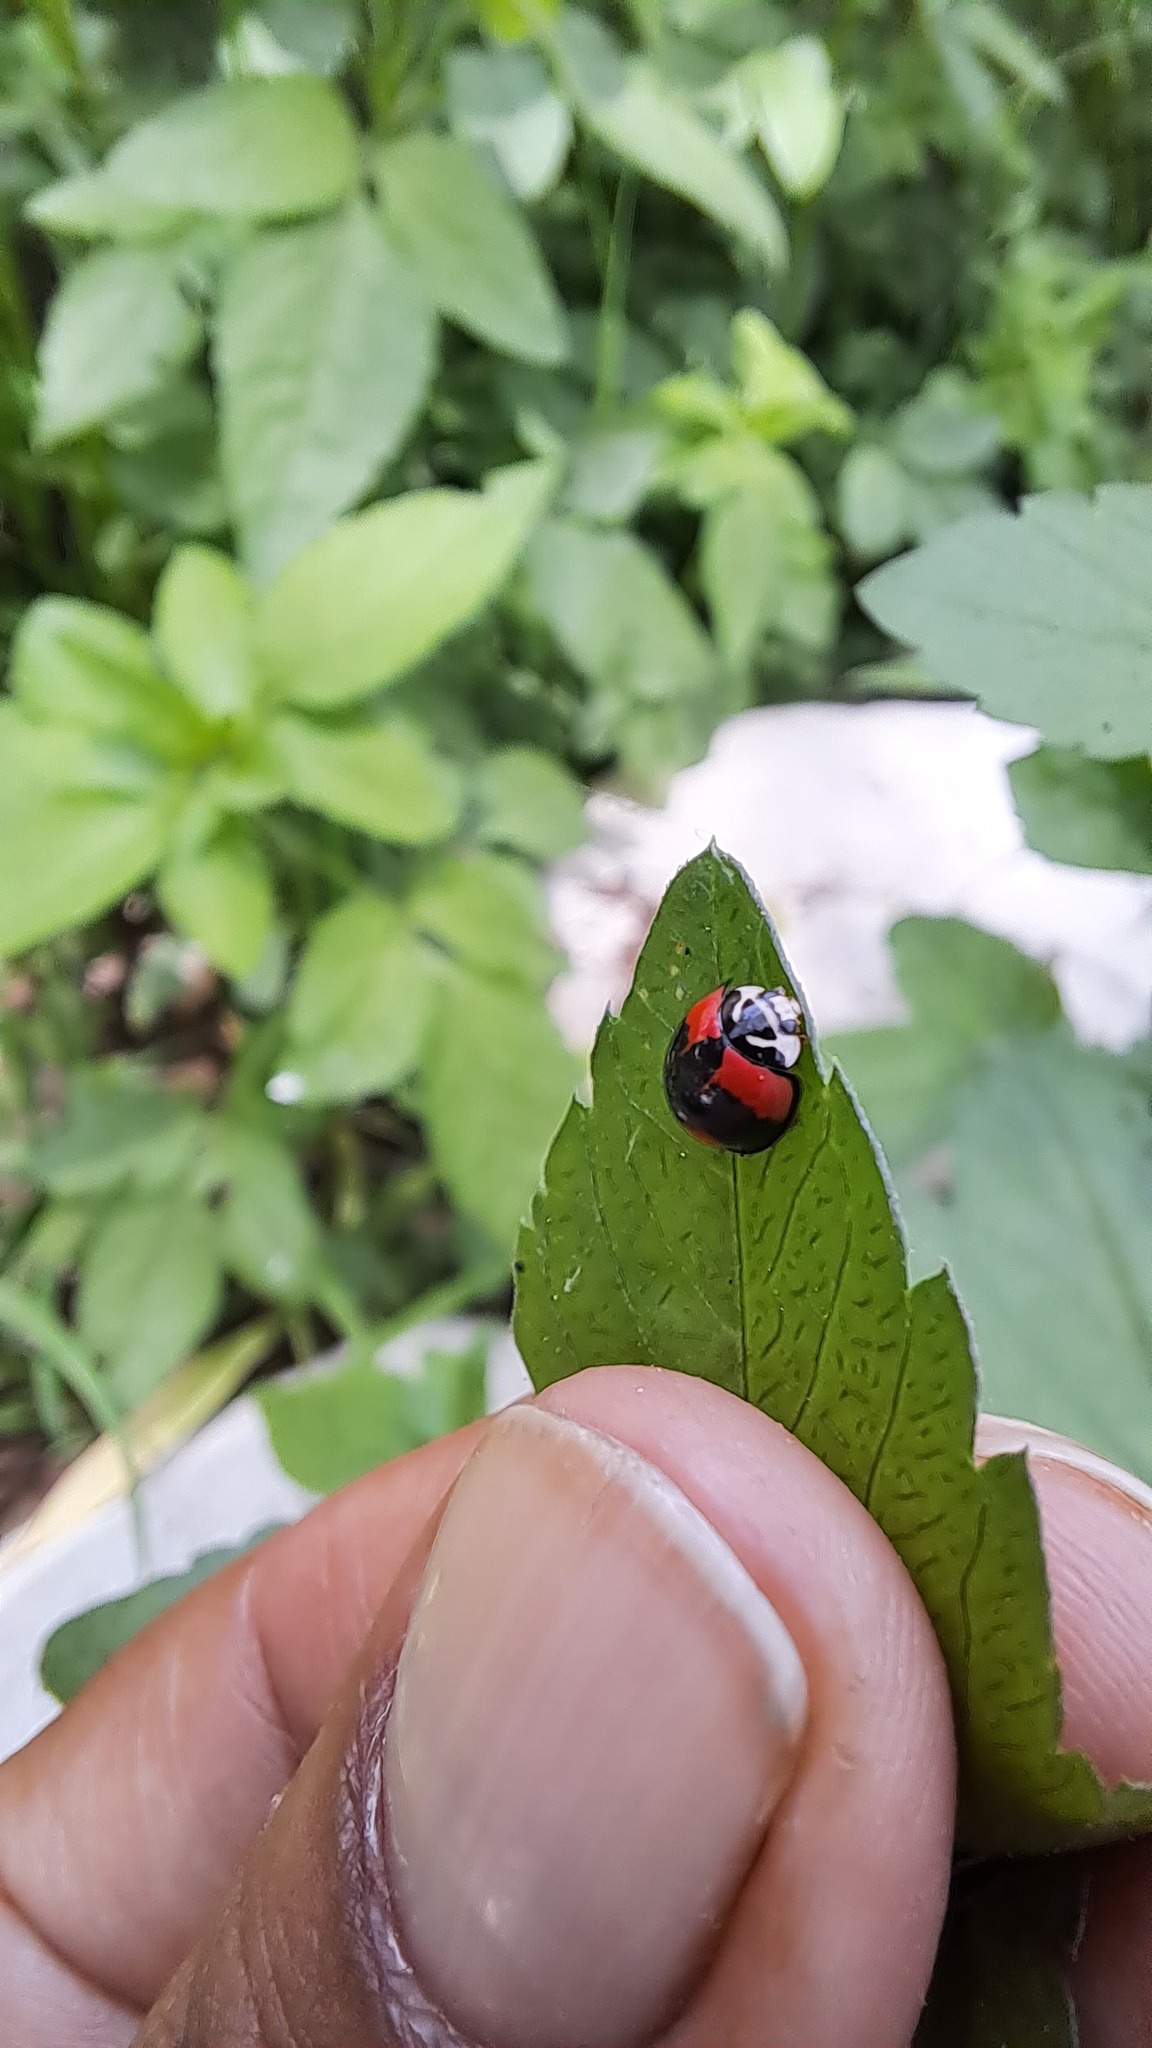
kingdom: Animalia
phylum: Arthropoda
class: Insecta
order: Coleoptera
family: Coccinellidae
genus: Cheilomenes
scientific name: Cheilomenes sexmaculata
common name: Ladybird beetle
